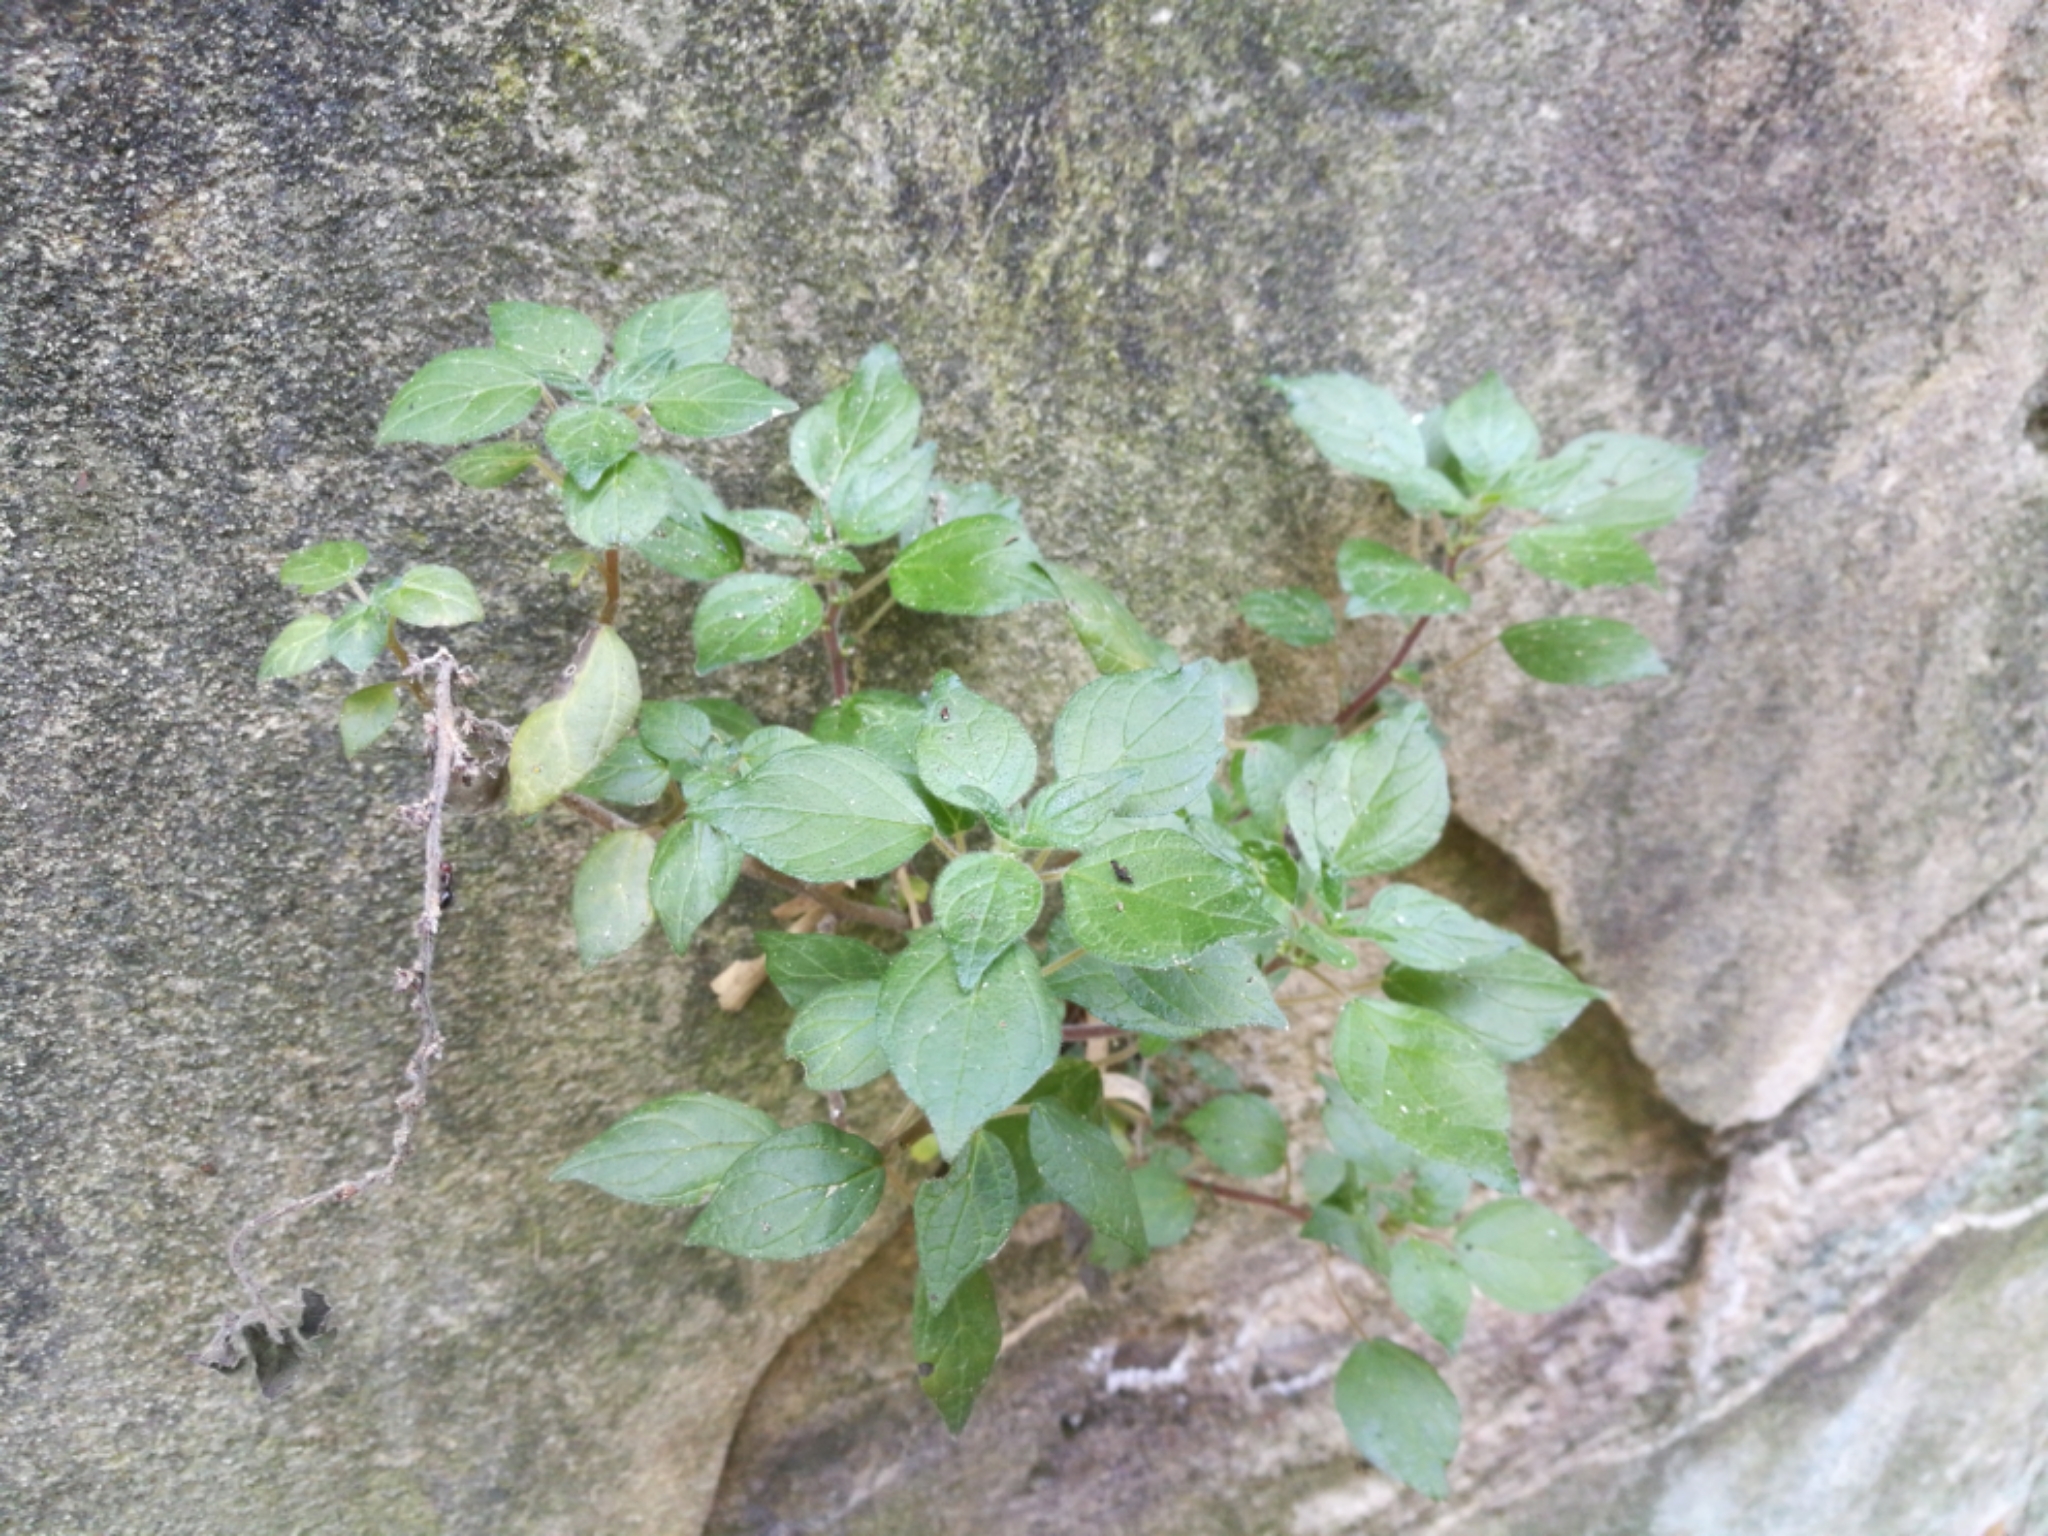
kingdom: Plantae
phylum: Tracheophyta
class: Magnoliopsida
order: Rosales
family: Urticaceae
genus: Parietaria
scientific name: Parietaria judaica
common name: Pellitory-of-the-wall
